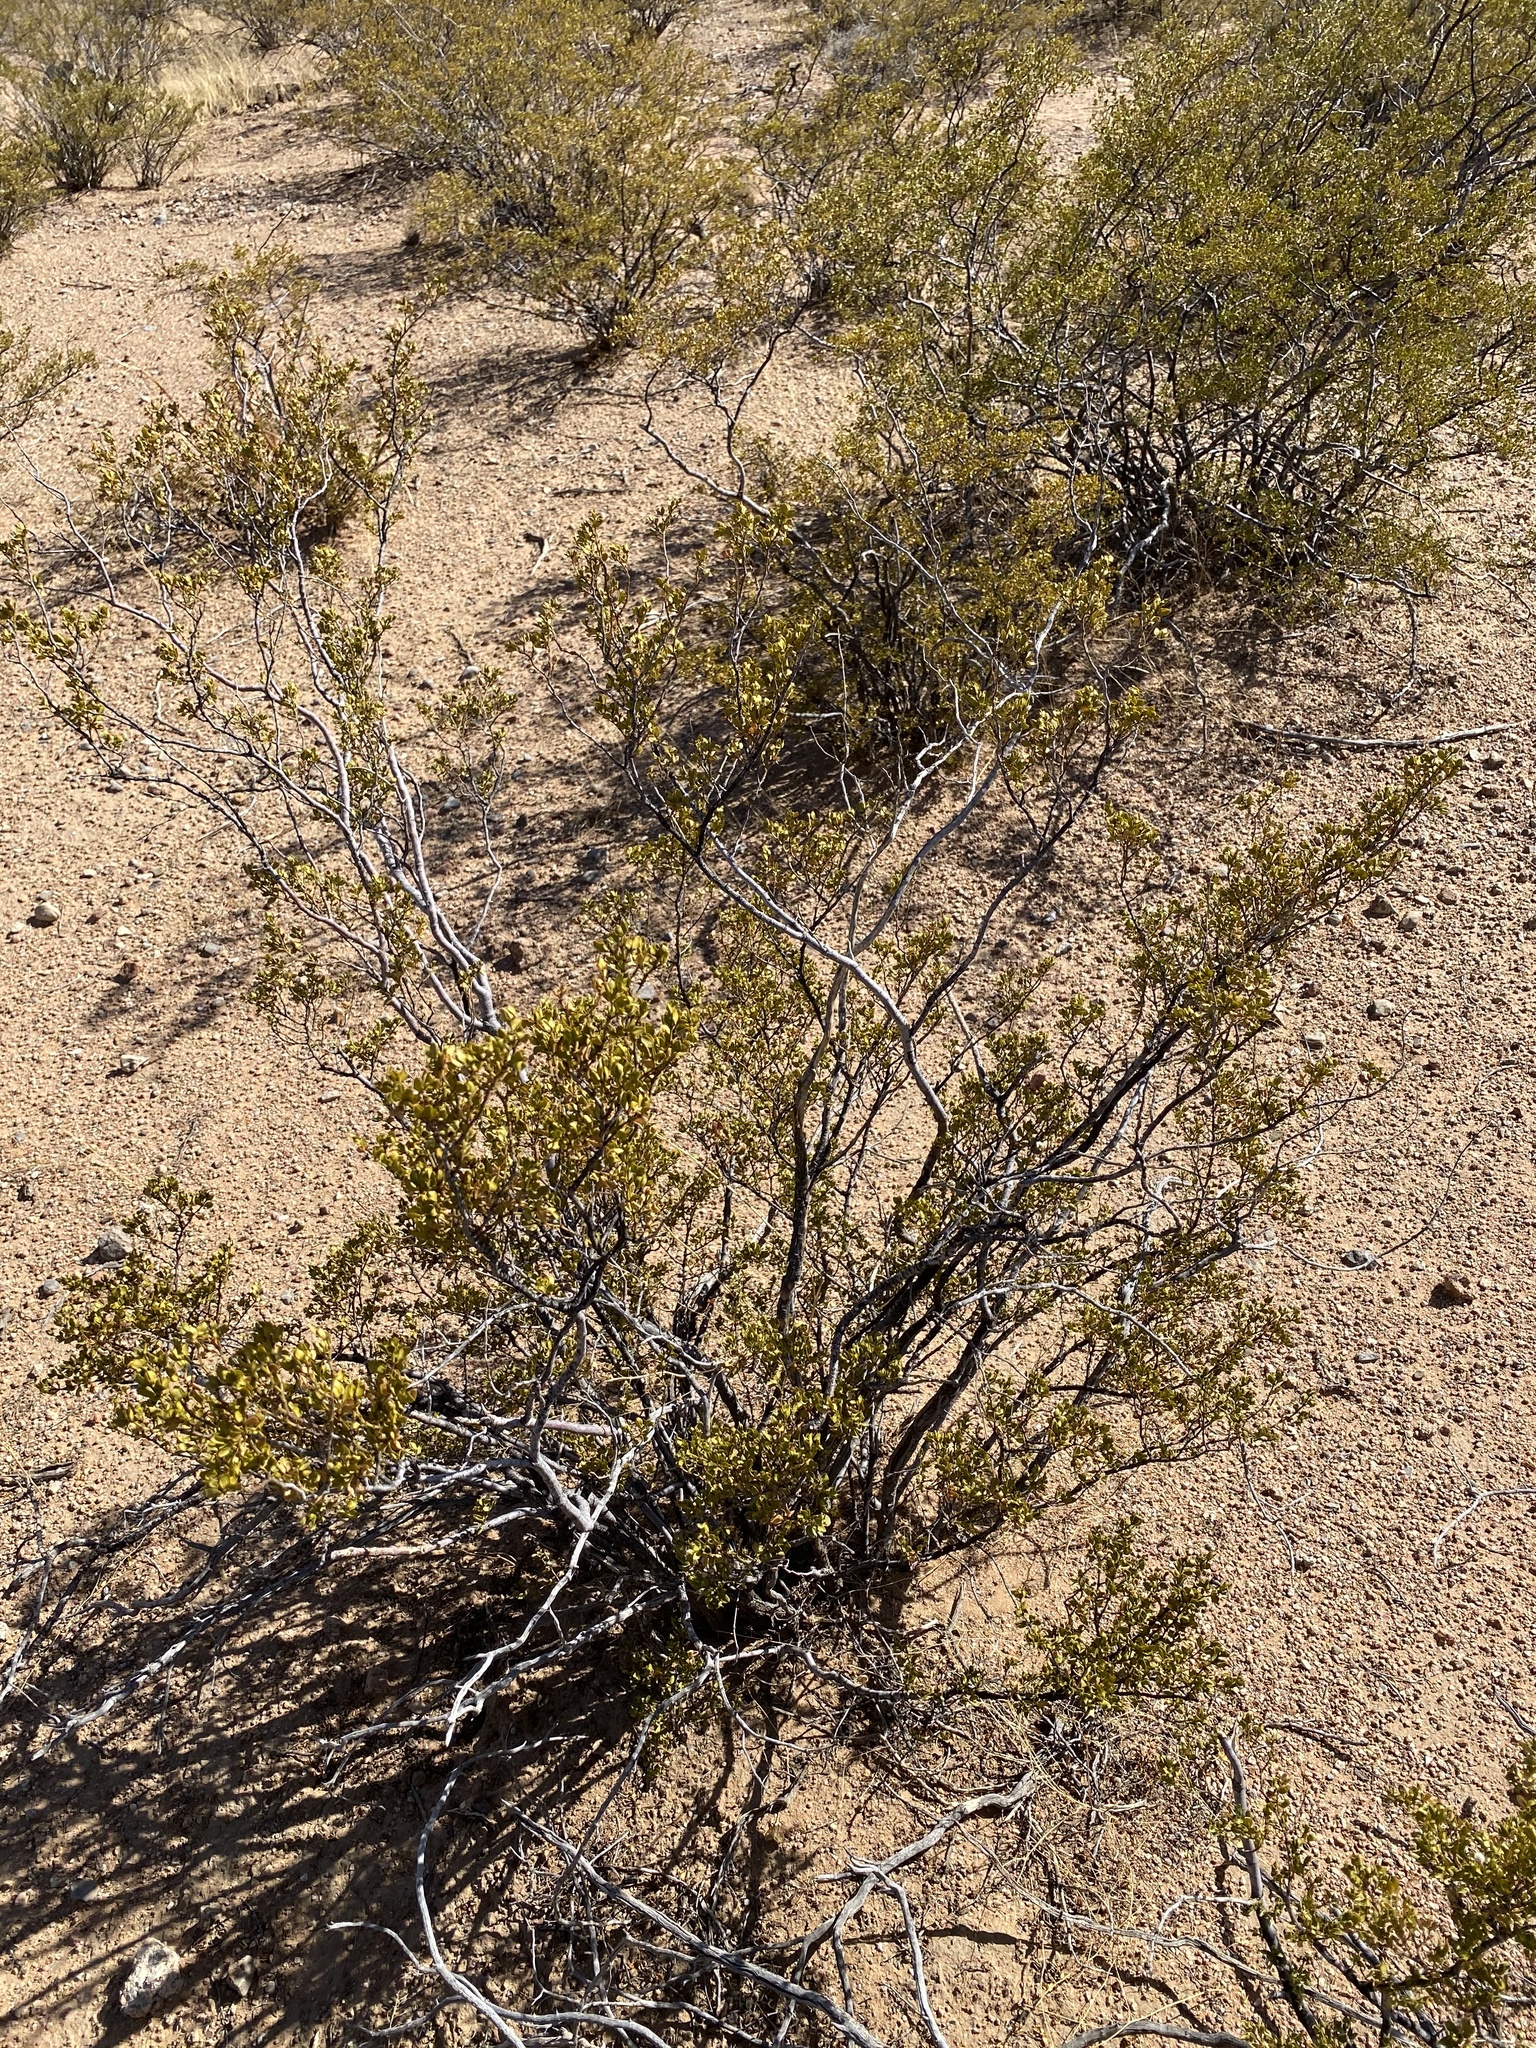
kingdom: Plantae
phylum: Tracheophyta
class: Magnoliopsida
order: Zygophyllales
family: Zygophyllaceae
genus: Larrea
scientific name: Larrea tridentata
